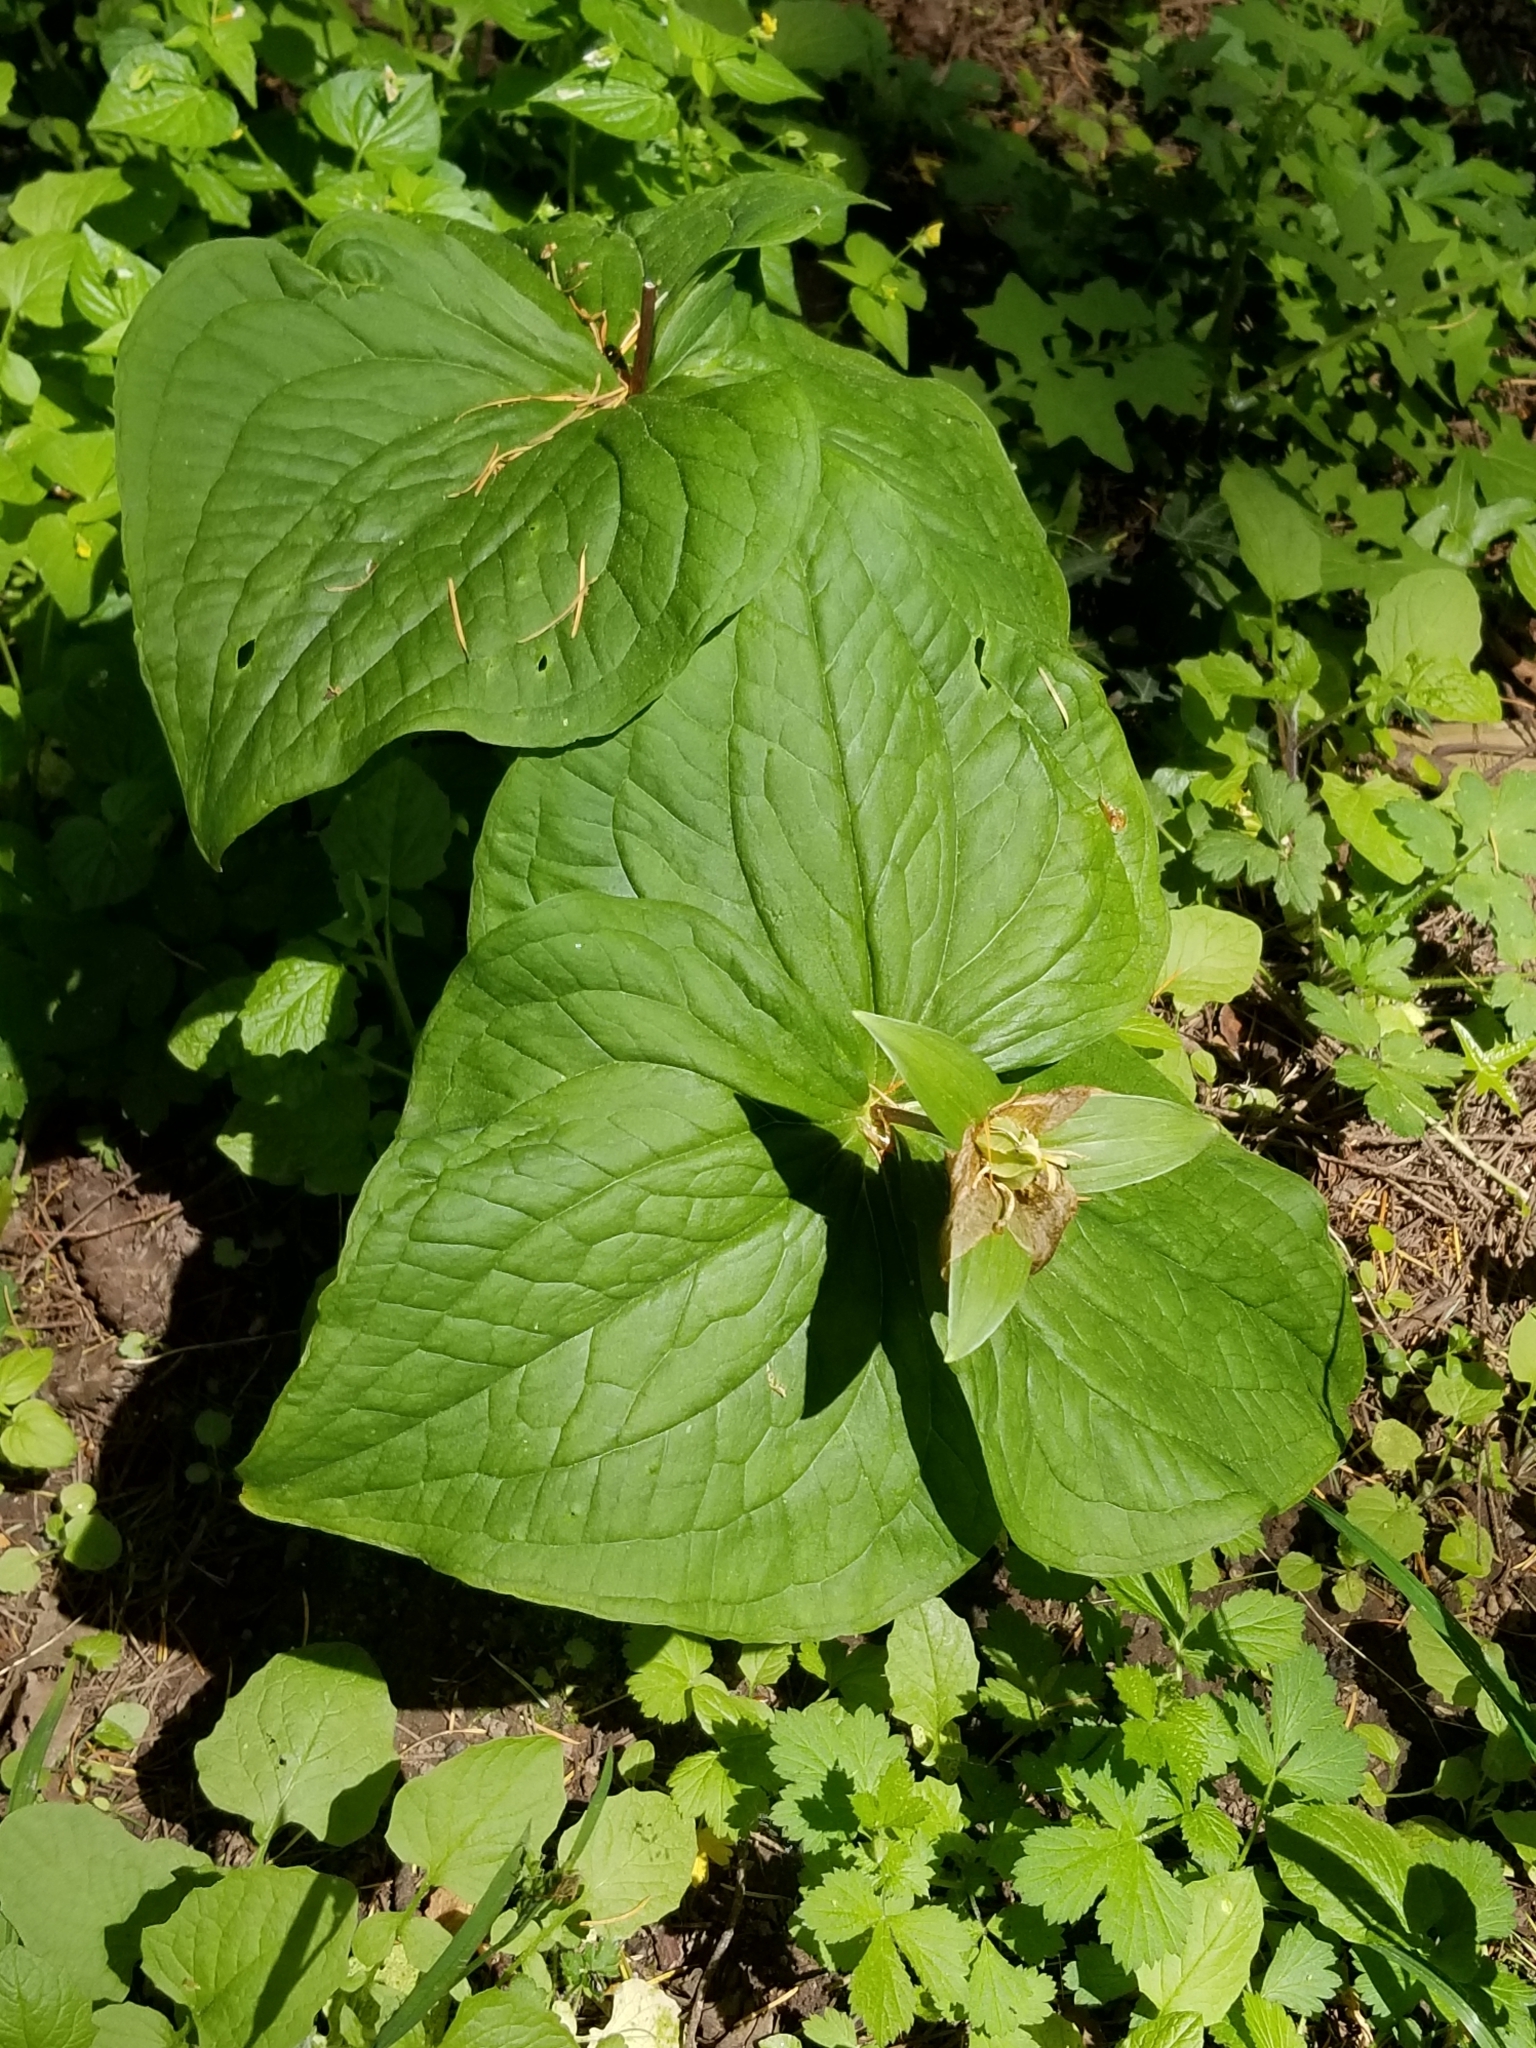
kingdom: Plantae
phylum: Tracheophyta
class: Liliopsida
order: Liliales
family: Melanthiaceae
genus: Trillium
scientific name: Trillium ovatum
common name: Pacific trillium
